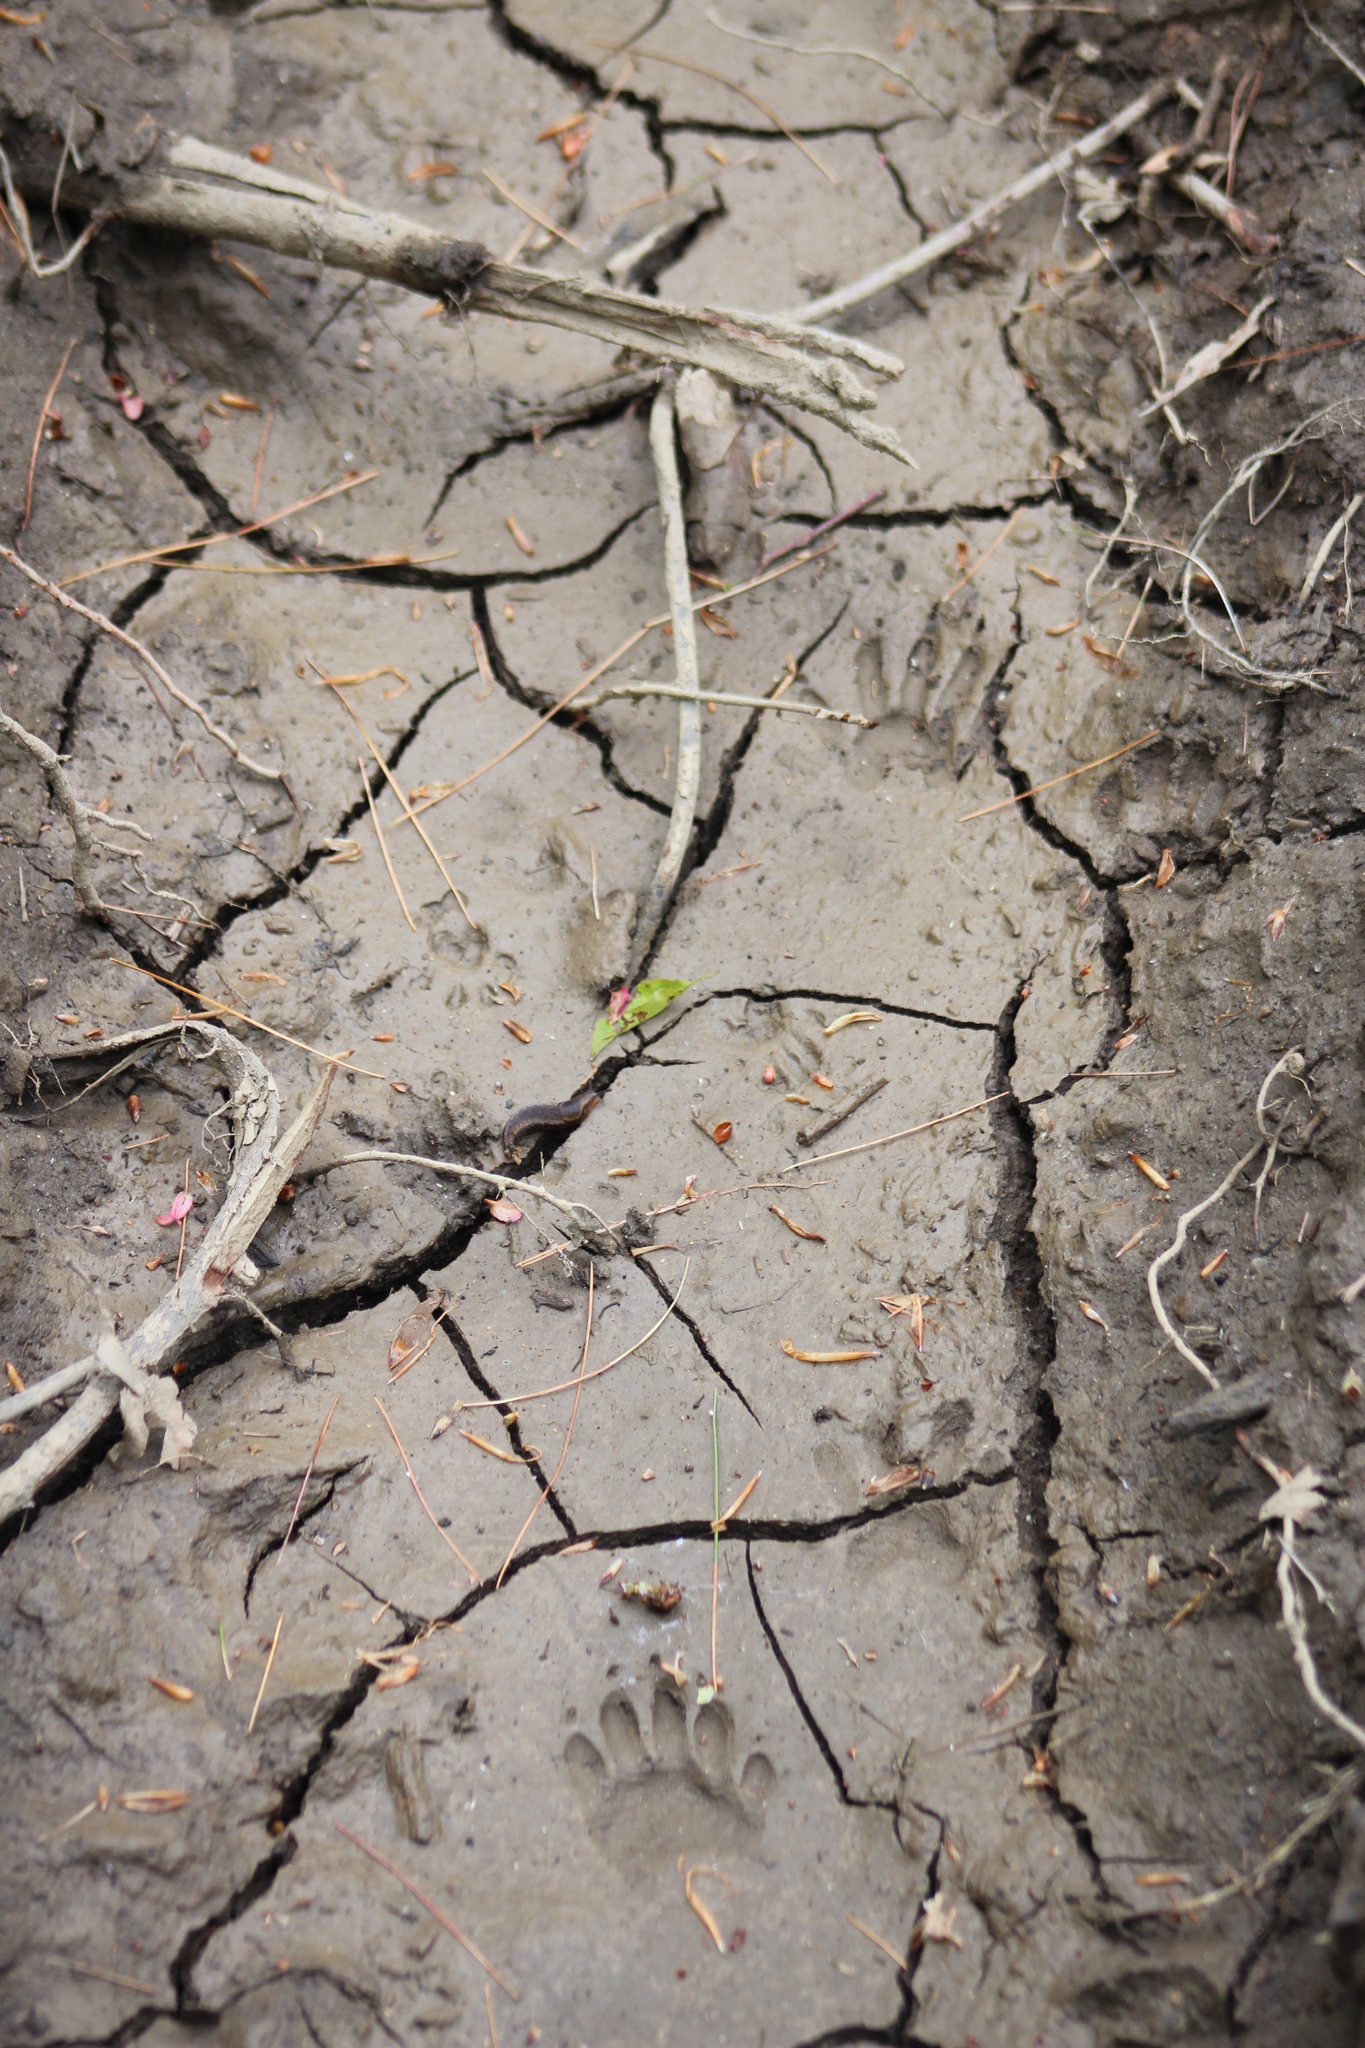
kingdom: Animalia
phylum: Chordata
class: Mammalia
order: Carnivora
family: Procyonidae
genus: Procyon
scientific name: Procyon lotor
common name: Raccoon
